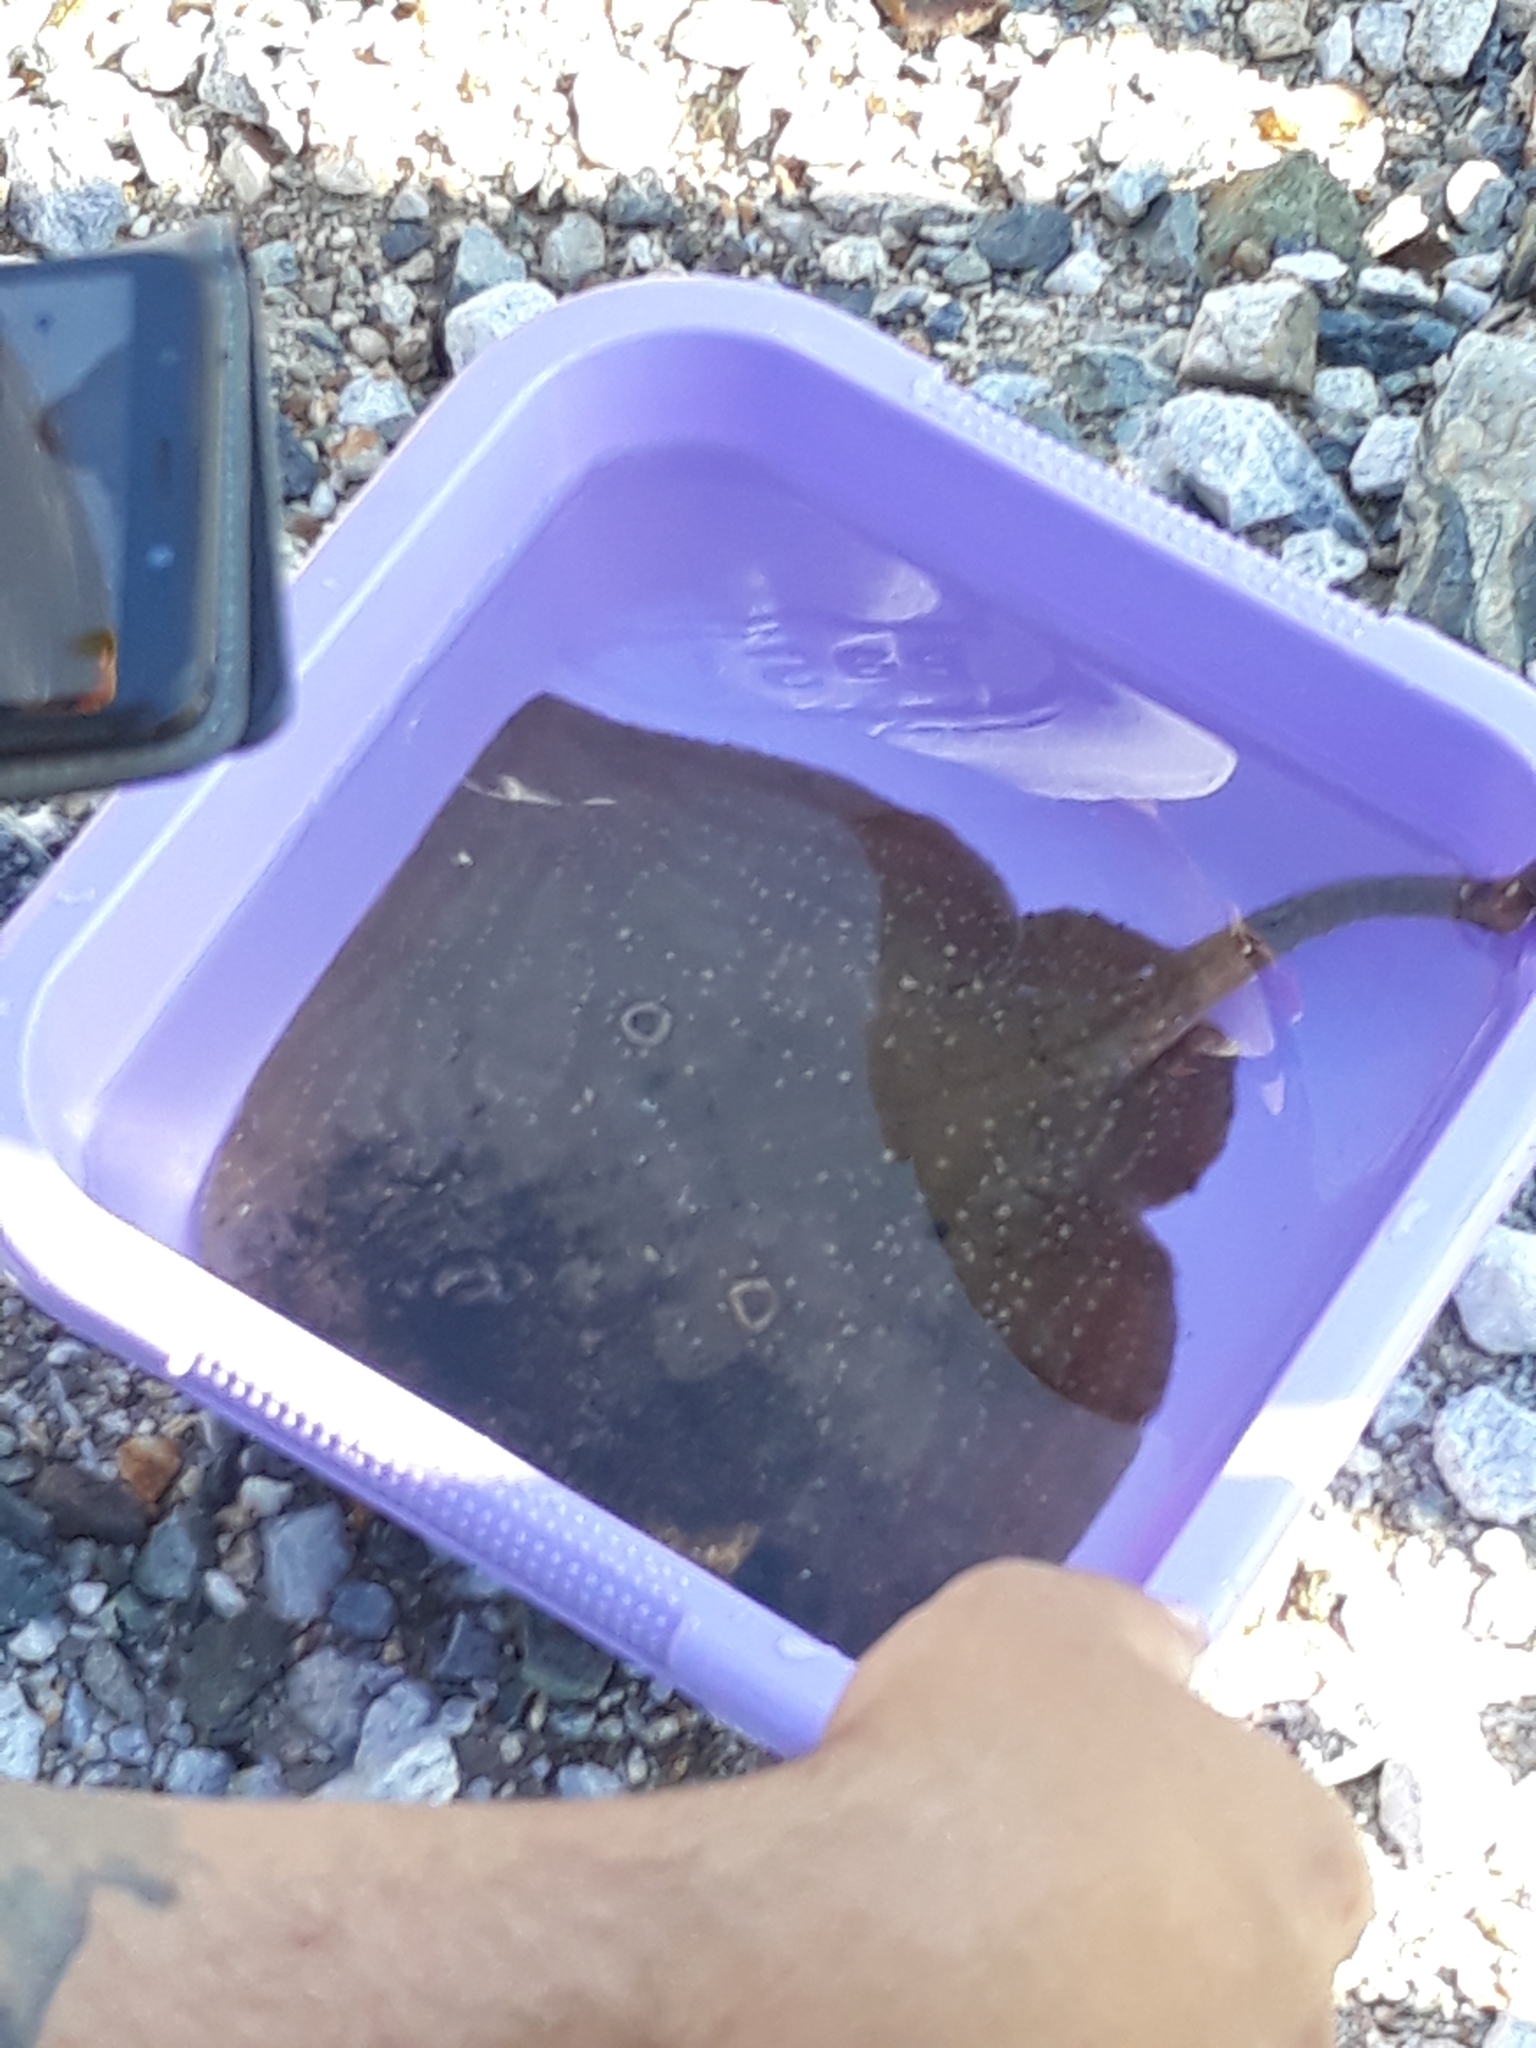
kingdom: Animalia
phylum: Chordata
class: Elasmobranchii
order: Rajiformes
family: Rajidae
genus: Raja
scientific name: Raja radula
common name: Rough ray
